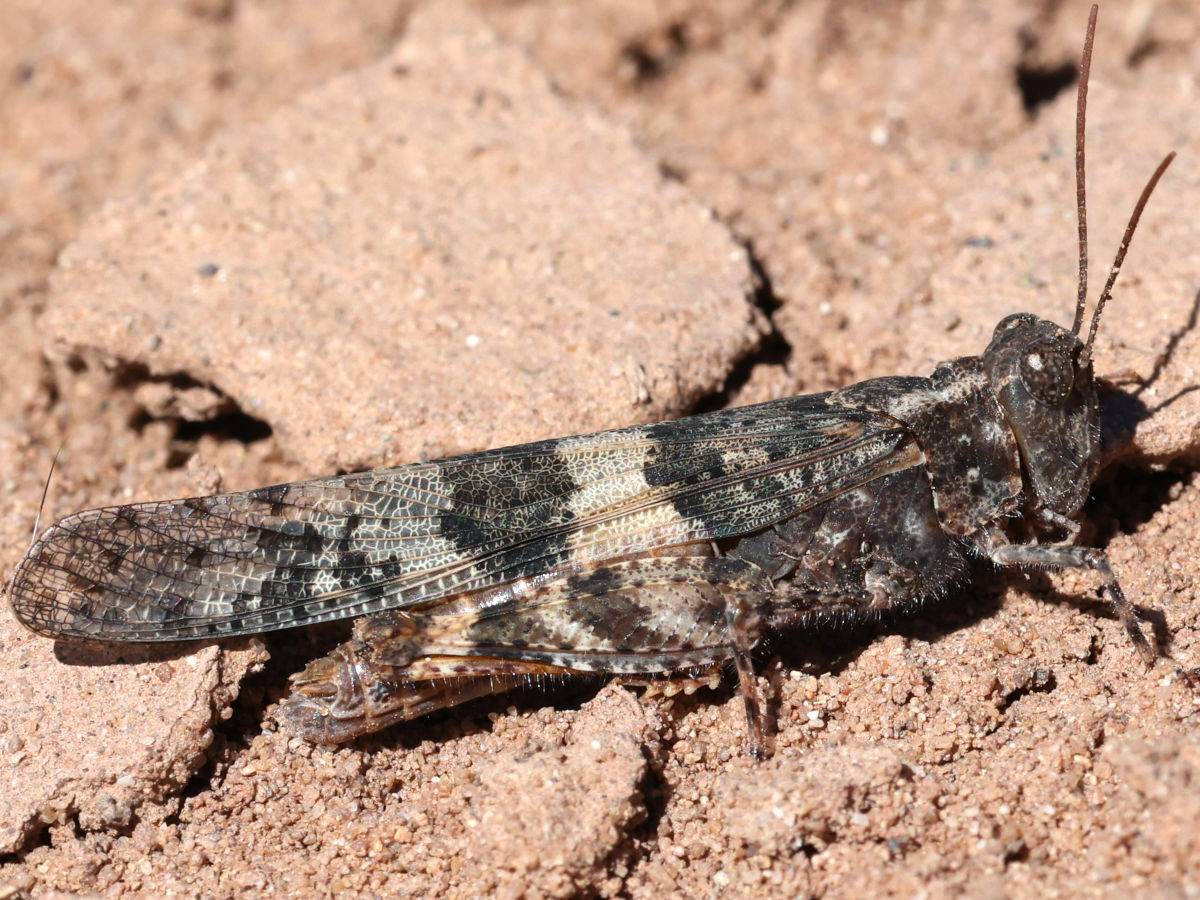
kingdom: Animalia
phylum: Arthropoda
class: Insecta
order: Orthoptera
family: Acrididae
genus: Trimerotropis
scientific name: Trimerotropis pallidipennis
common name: Pallid-winged grasshopper
